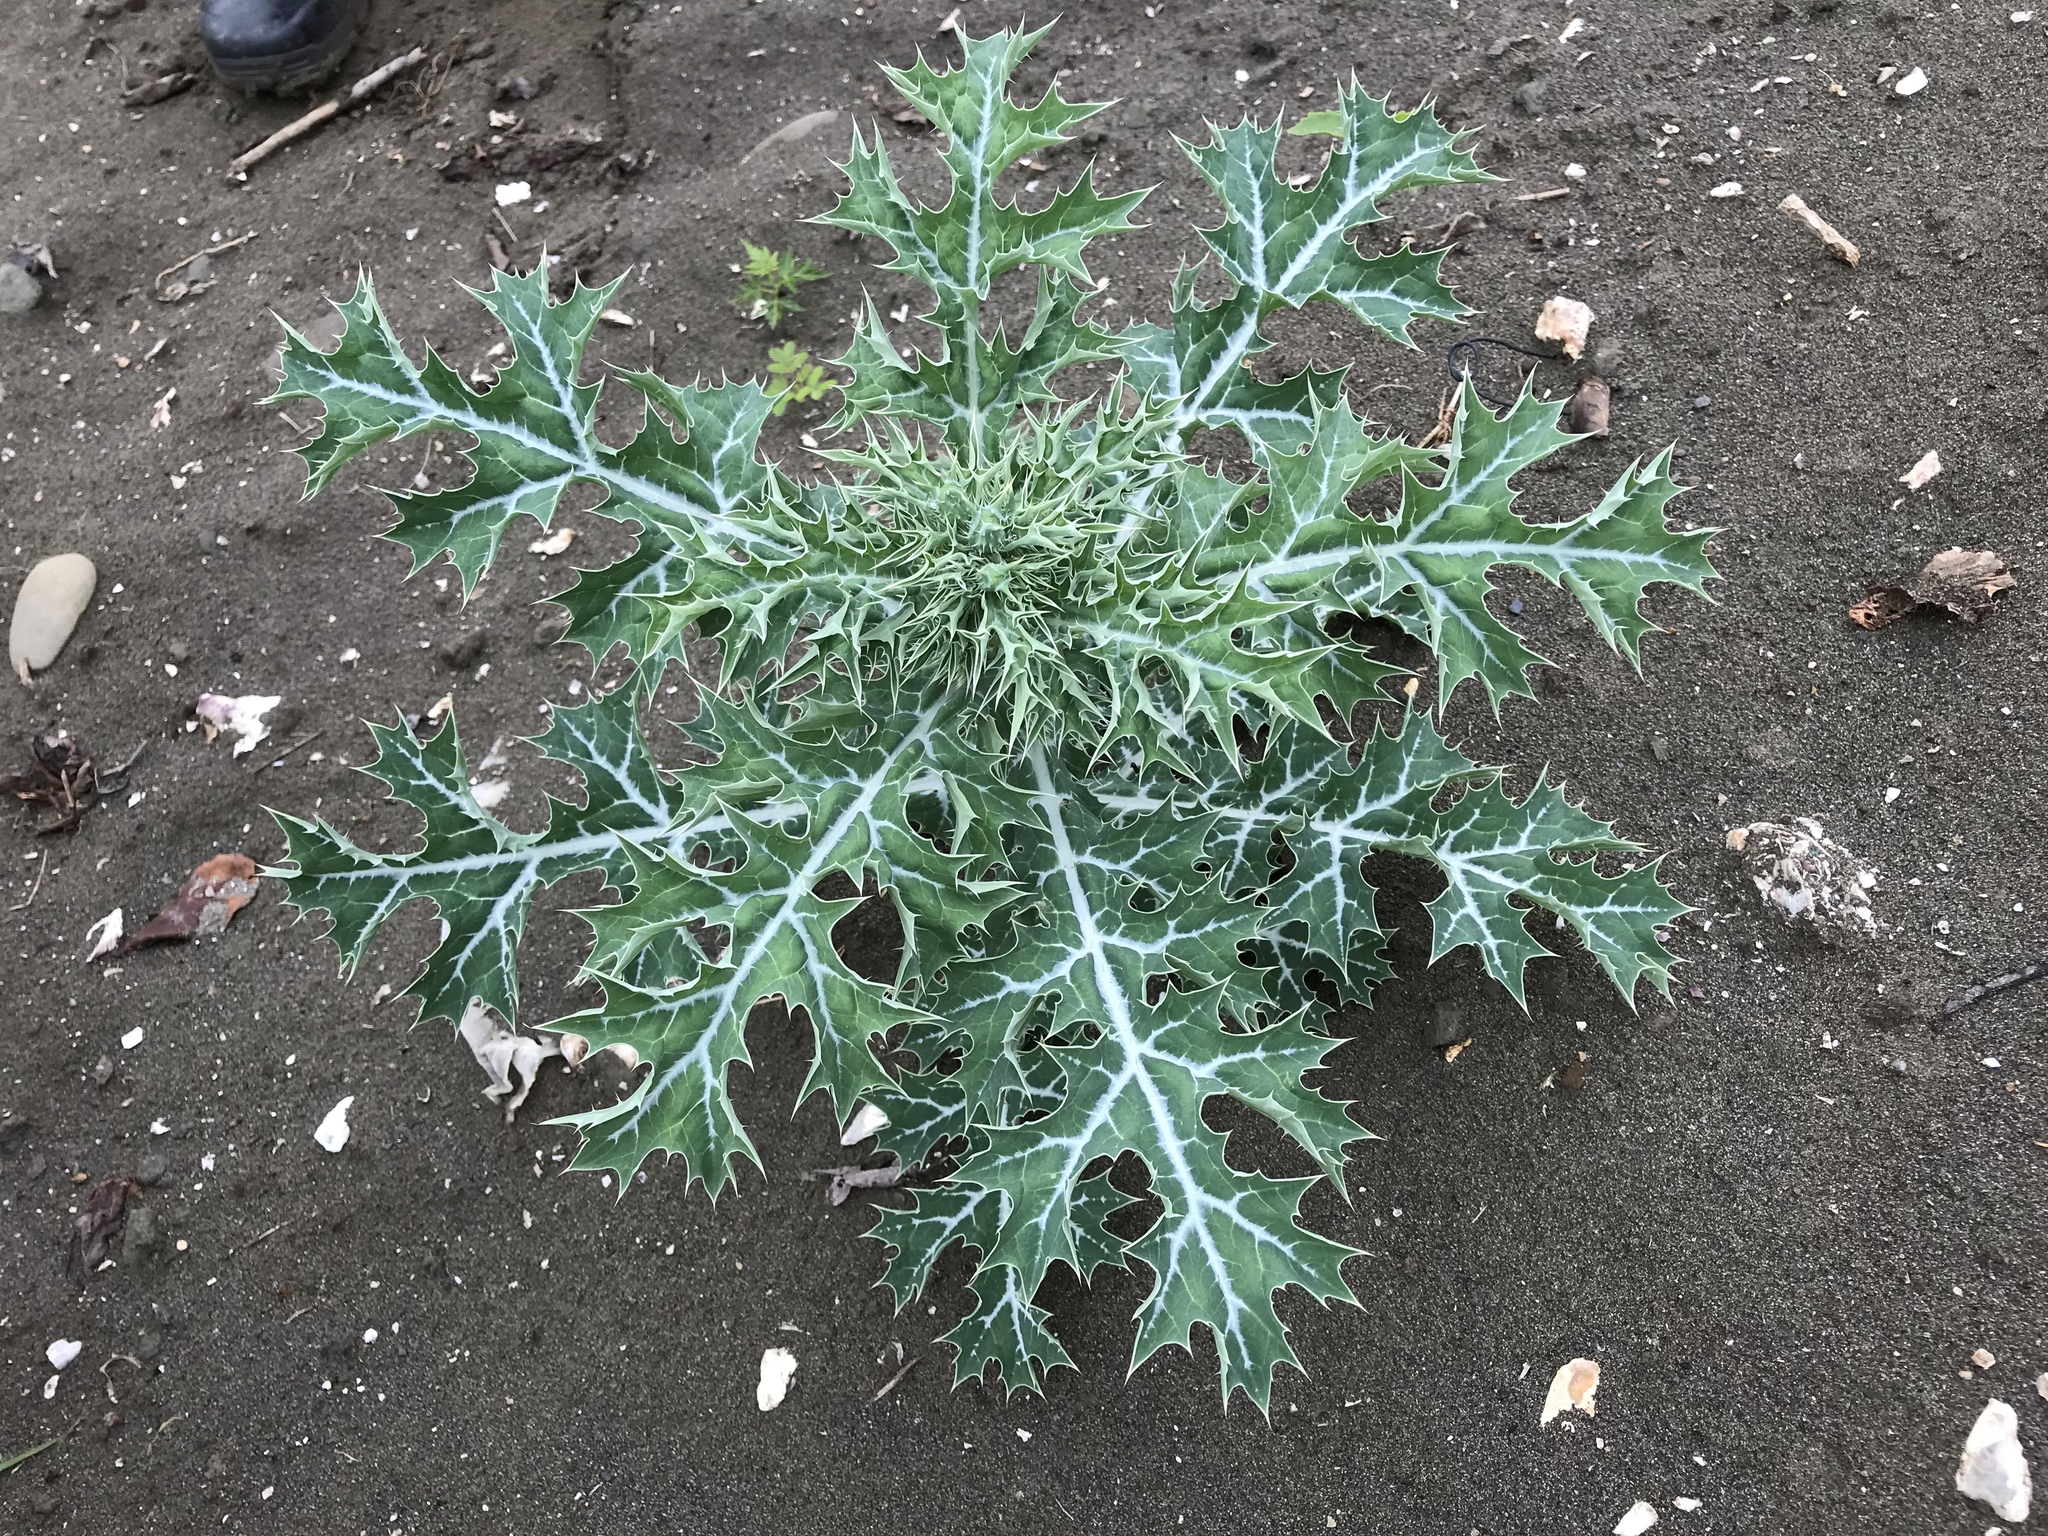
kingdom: Plantae
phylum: Tracheophyta
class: Magnoliopsida
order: Ranunculales
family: Papaveraceae
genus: Argemone
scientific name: Argemone mexicana
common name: Mexican poppy
